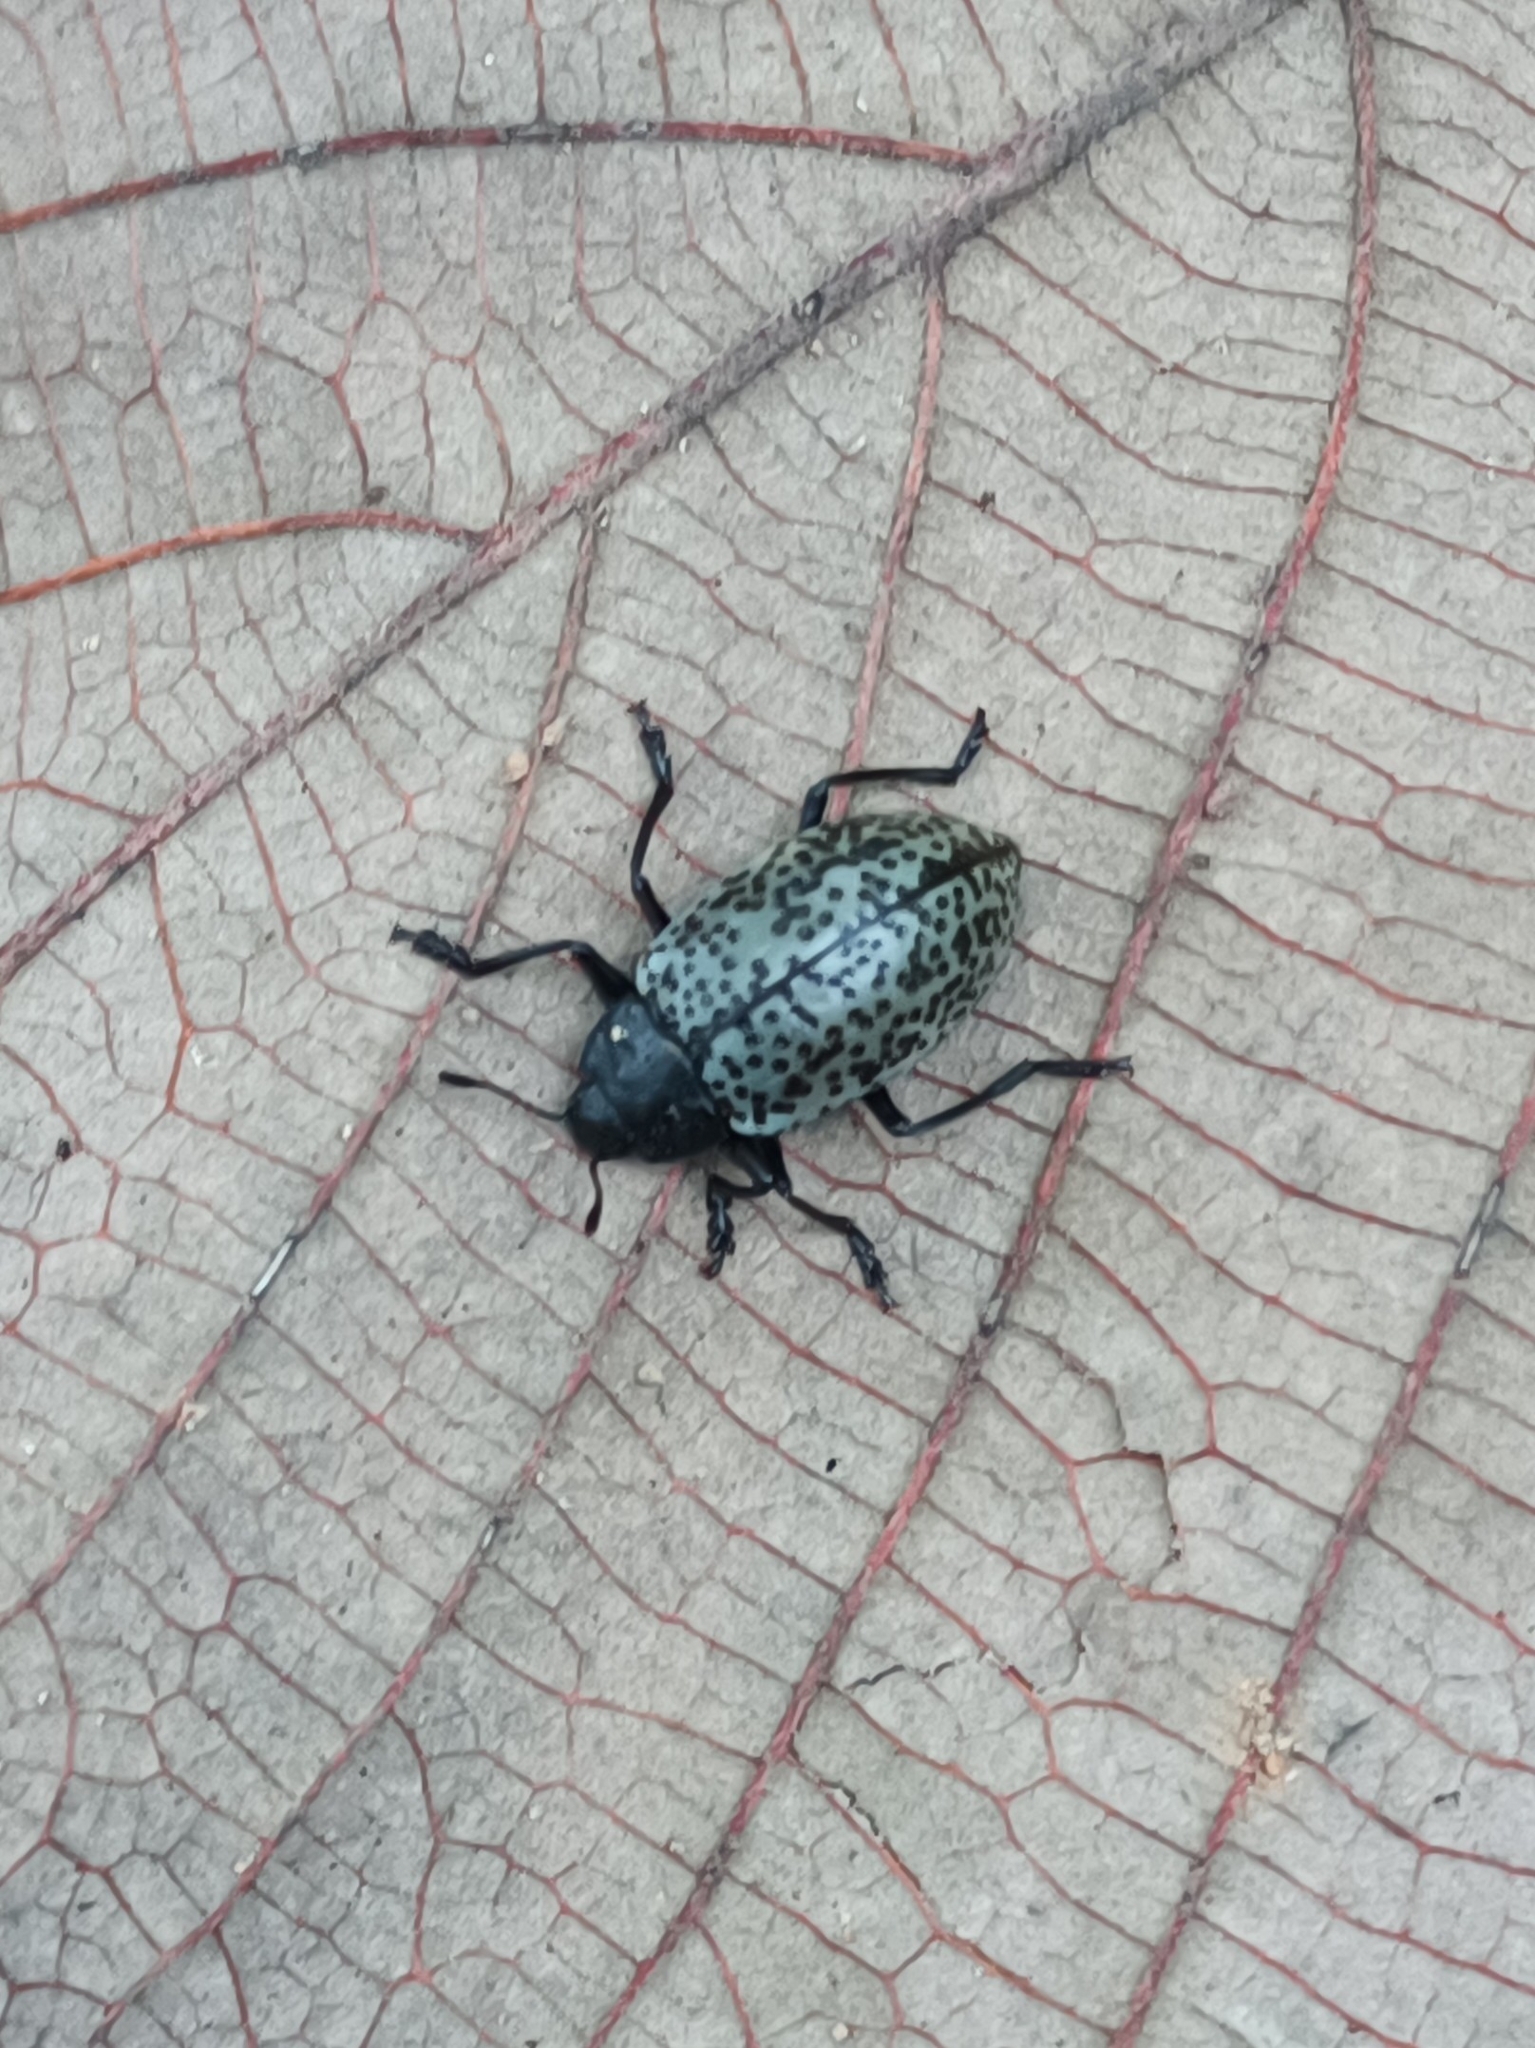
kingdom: Animalia
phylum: Arthropoda
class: Insecta
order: Coleoptera
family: Erotylidae
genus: Gibbifer
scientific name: Gibbifer californicus
